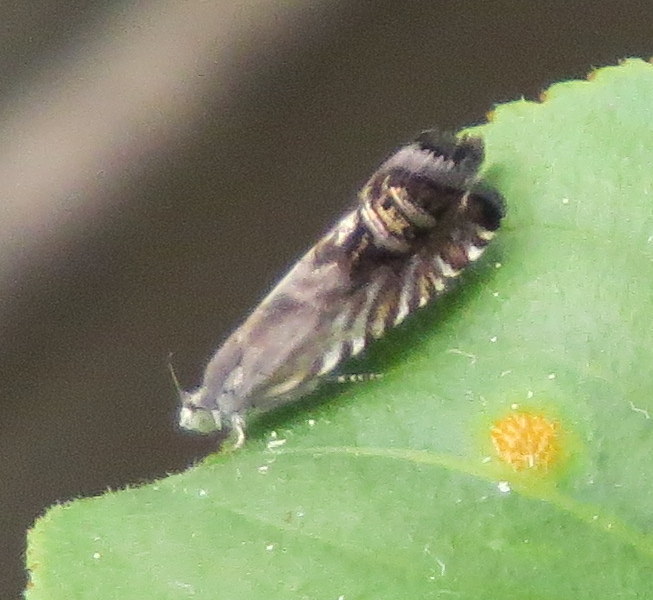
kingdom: Animalia
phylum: Arthropoda
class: Insecta
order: Lepidoptera
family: Tortricidae
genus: Grapholita
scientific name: Grapholita
